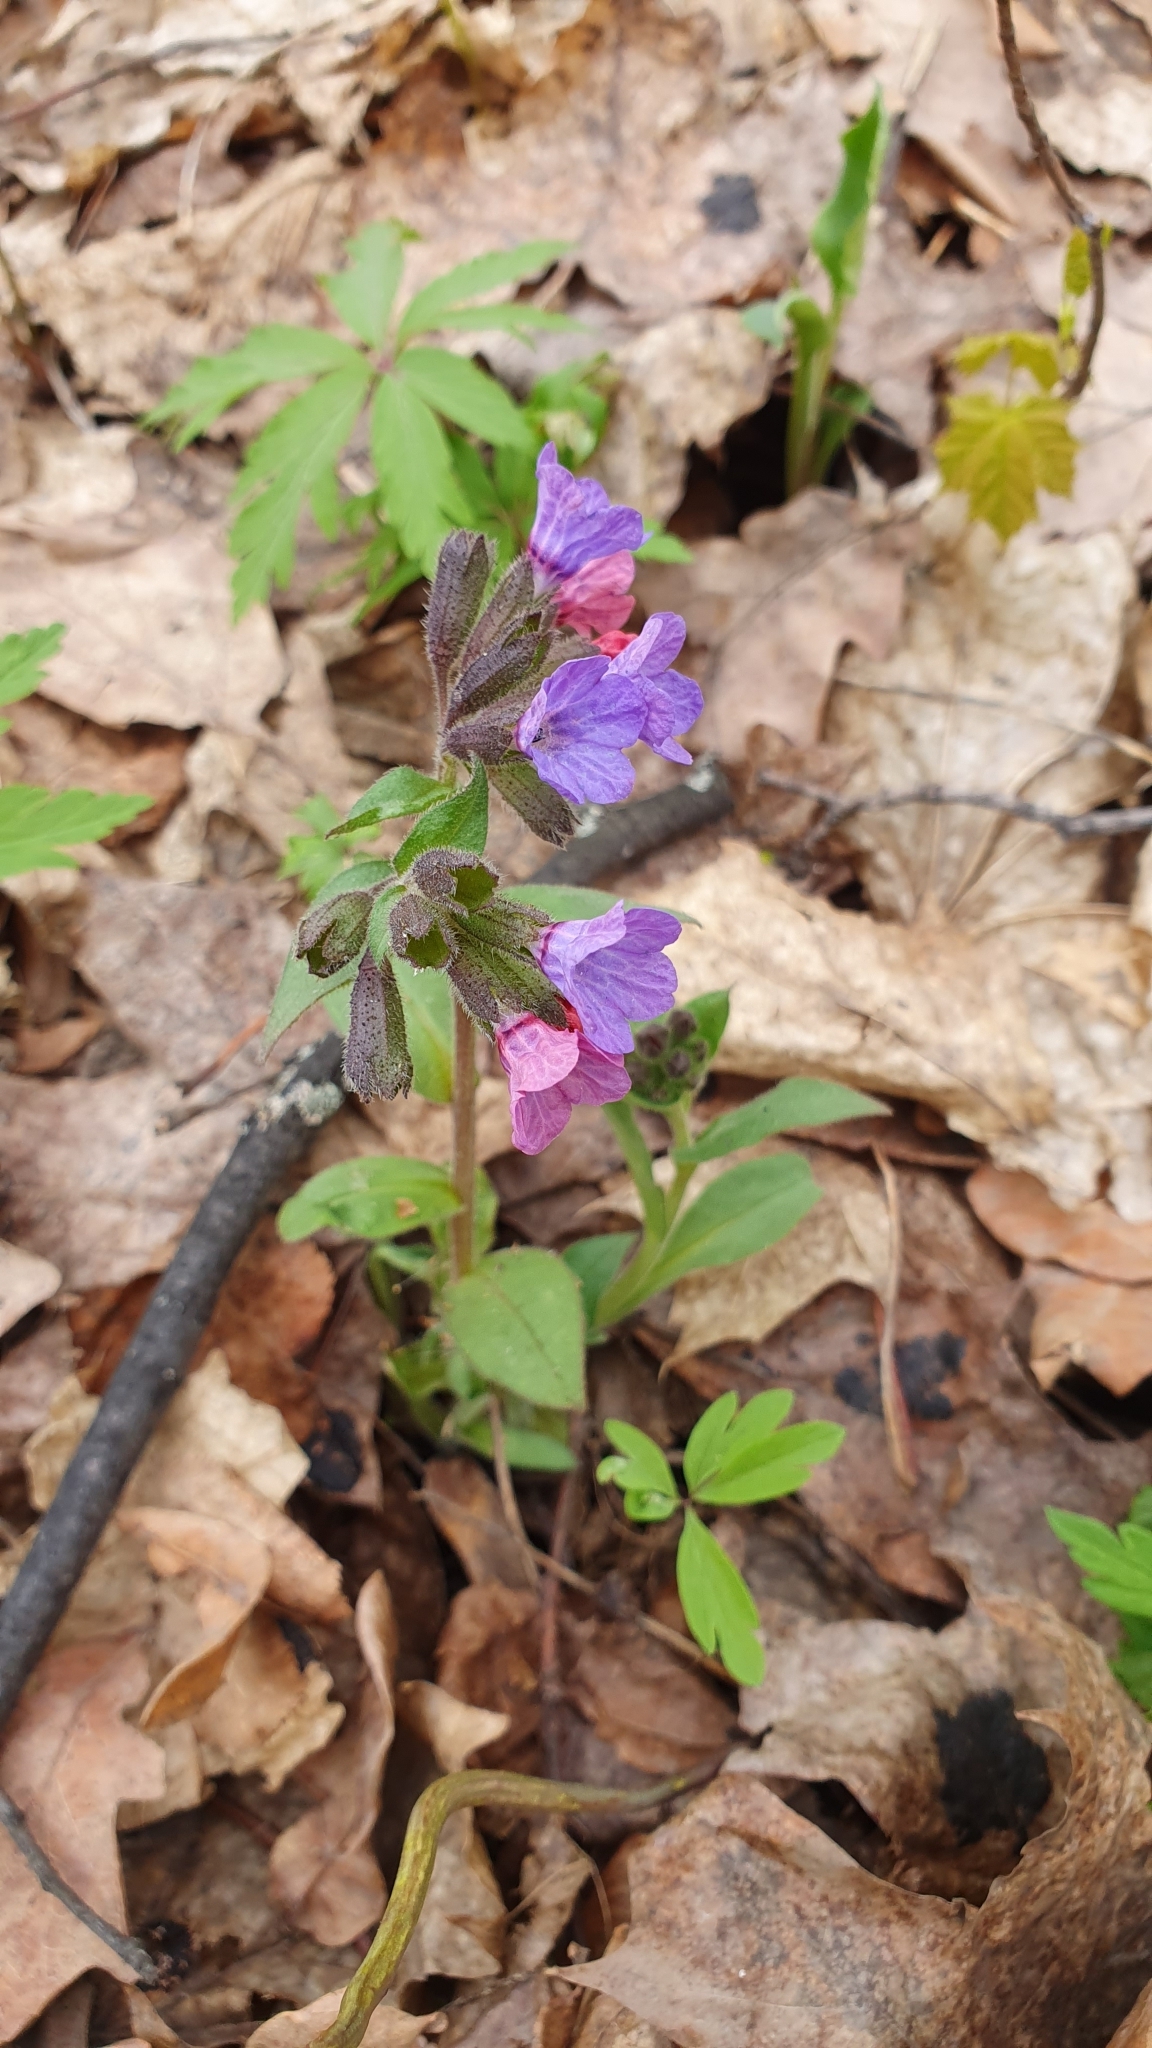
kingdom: Plantae
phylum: Tracheophyta
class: Magnoliopsida
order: Boraginales
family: Boraginaceae
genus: Pulmonaria
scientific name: Pulmonaria obscura
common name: Suffolk lungwort
